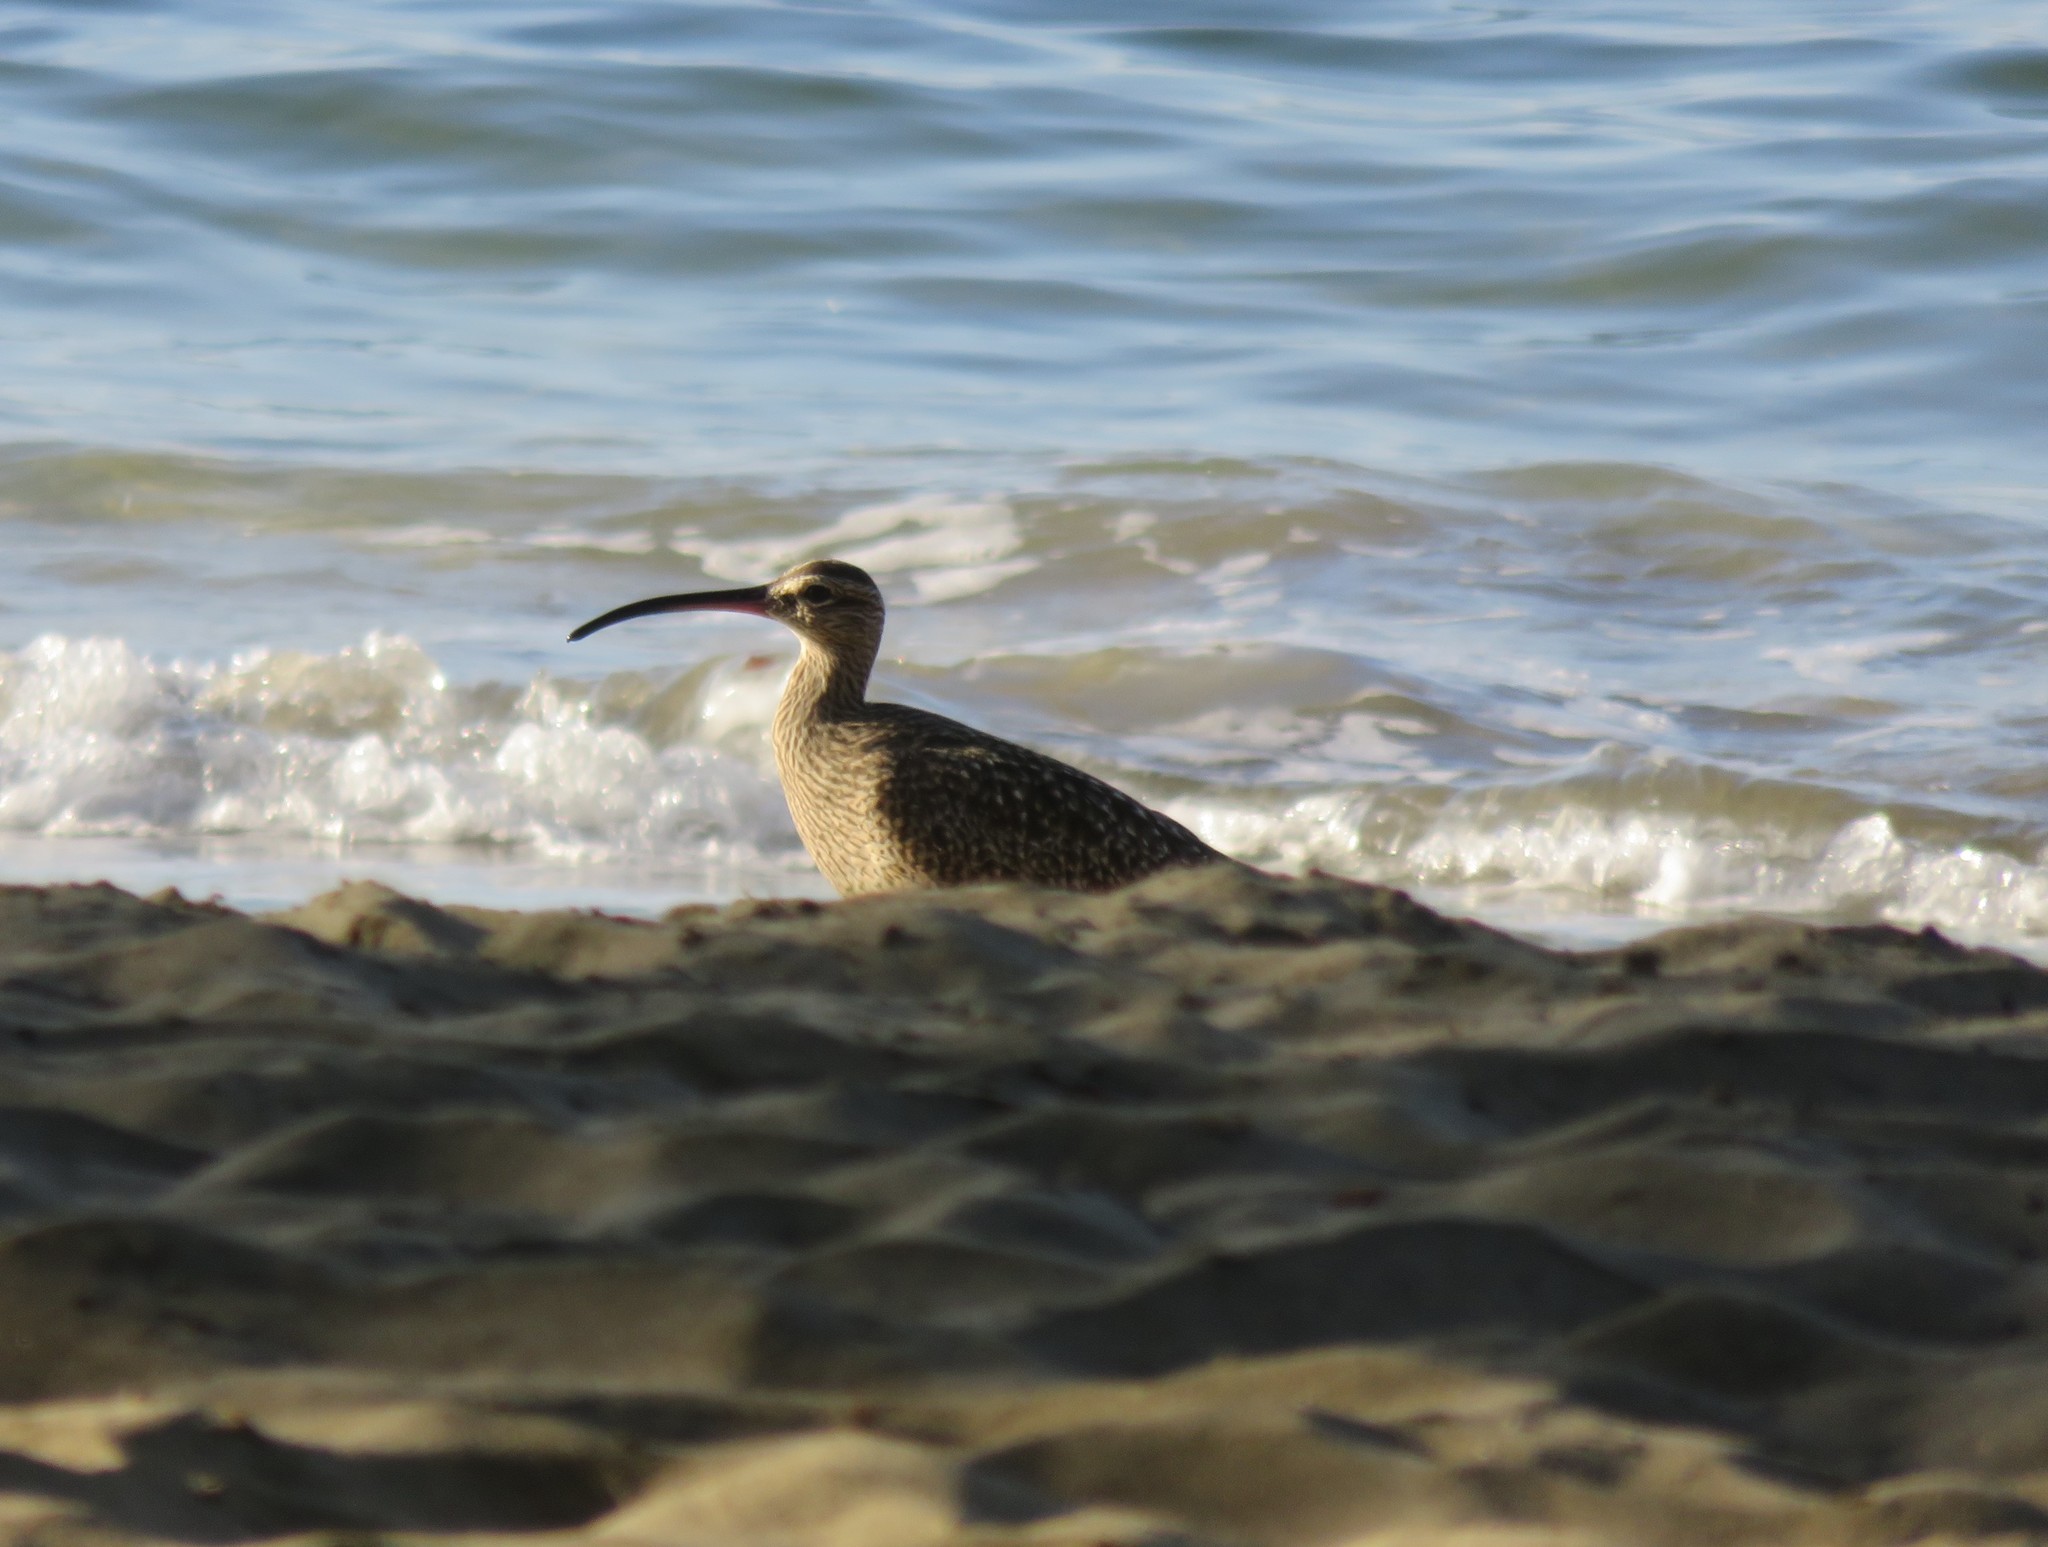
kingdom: Animalia
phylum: Chordata
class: Aves
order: Charadriiformes
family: Scolopacidae
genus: Numenius
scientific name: Numenius phaeopus
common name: Whimbrel
